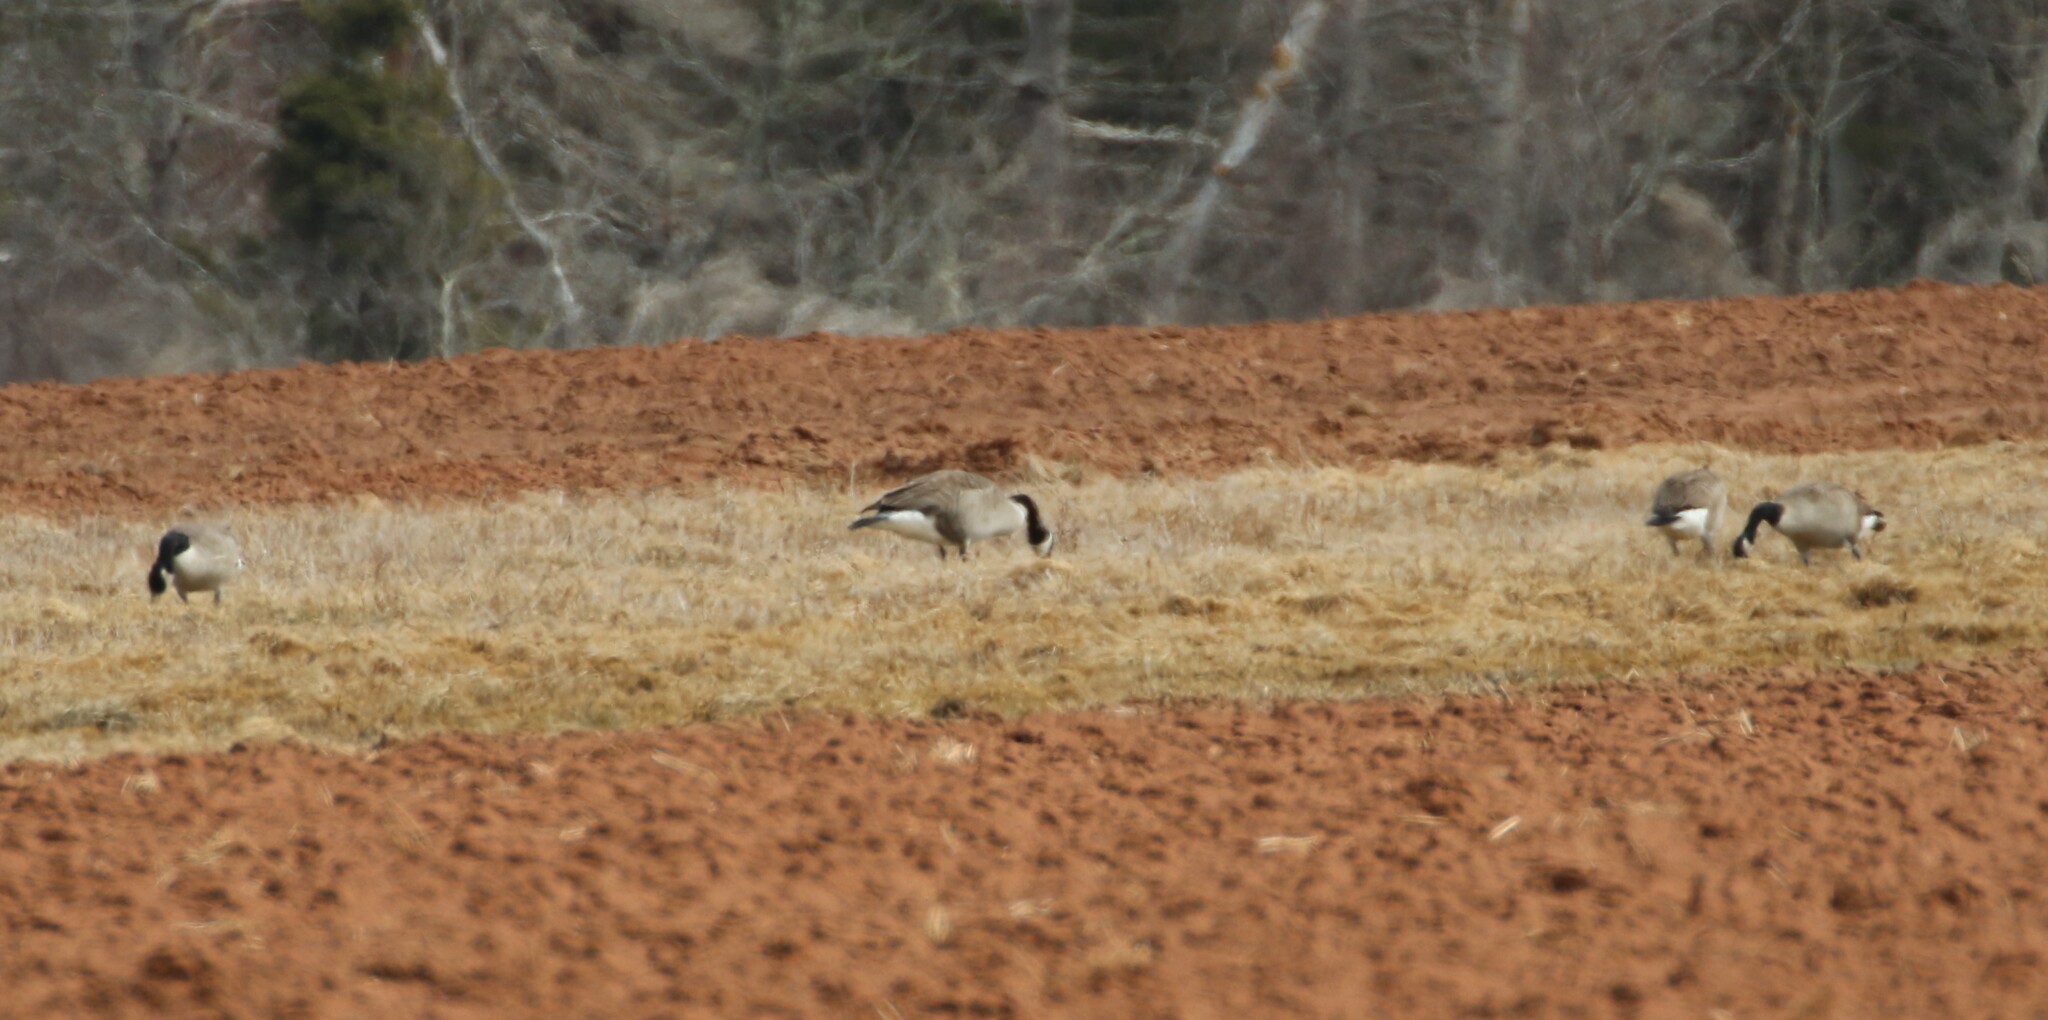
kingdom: Animalia
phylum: Chordata
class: Aves
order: Anseriformes
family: Anatidae
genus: Branta
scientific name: Branta canadensis
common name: Canada goose
